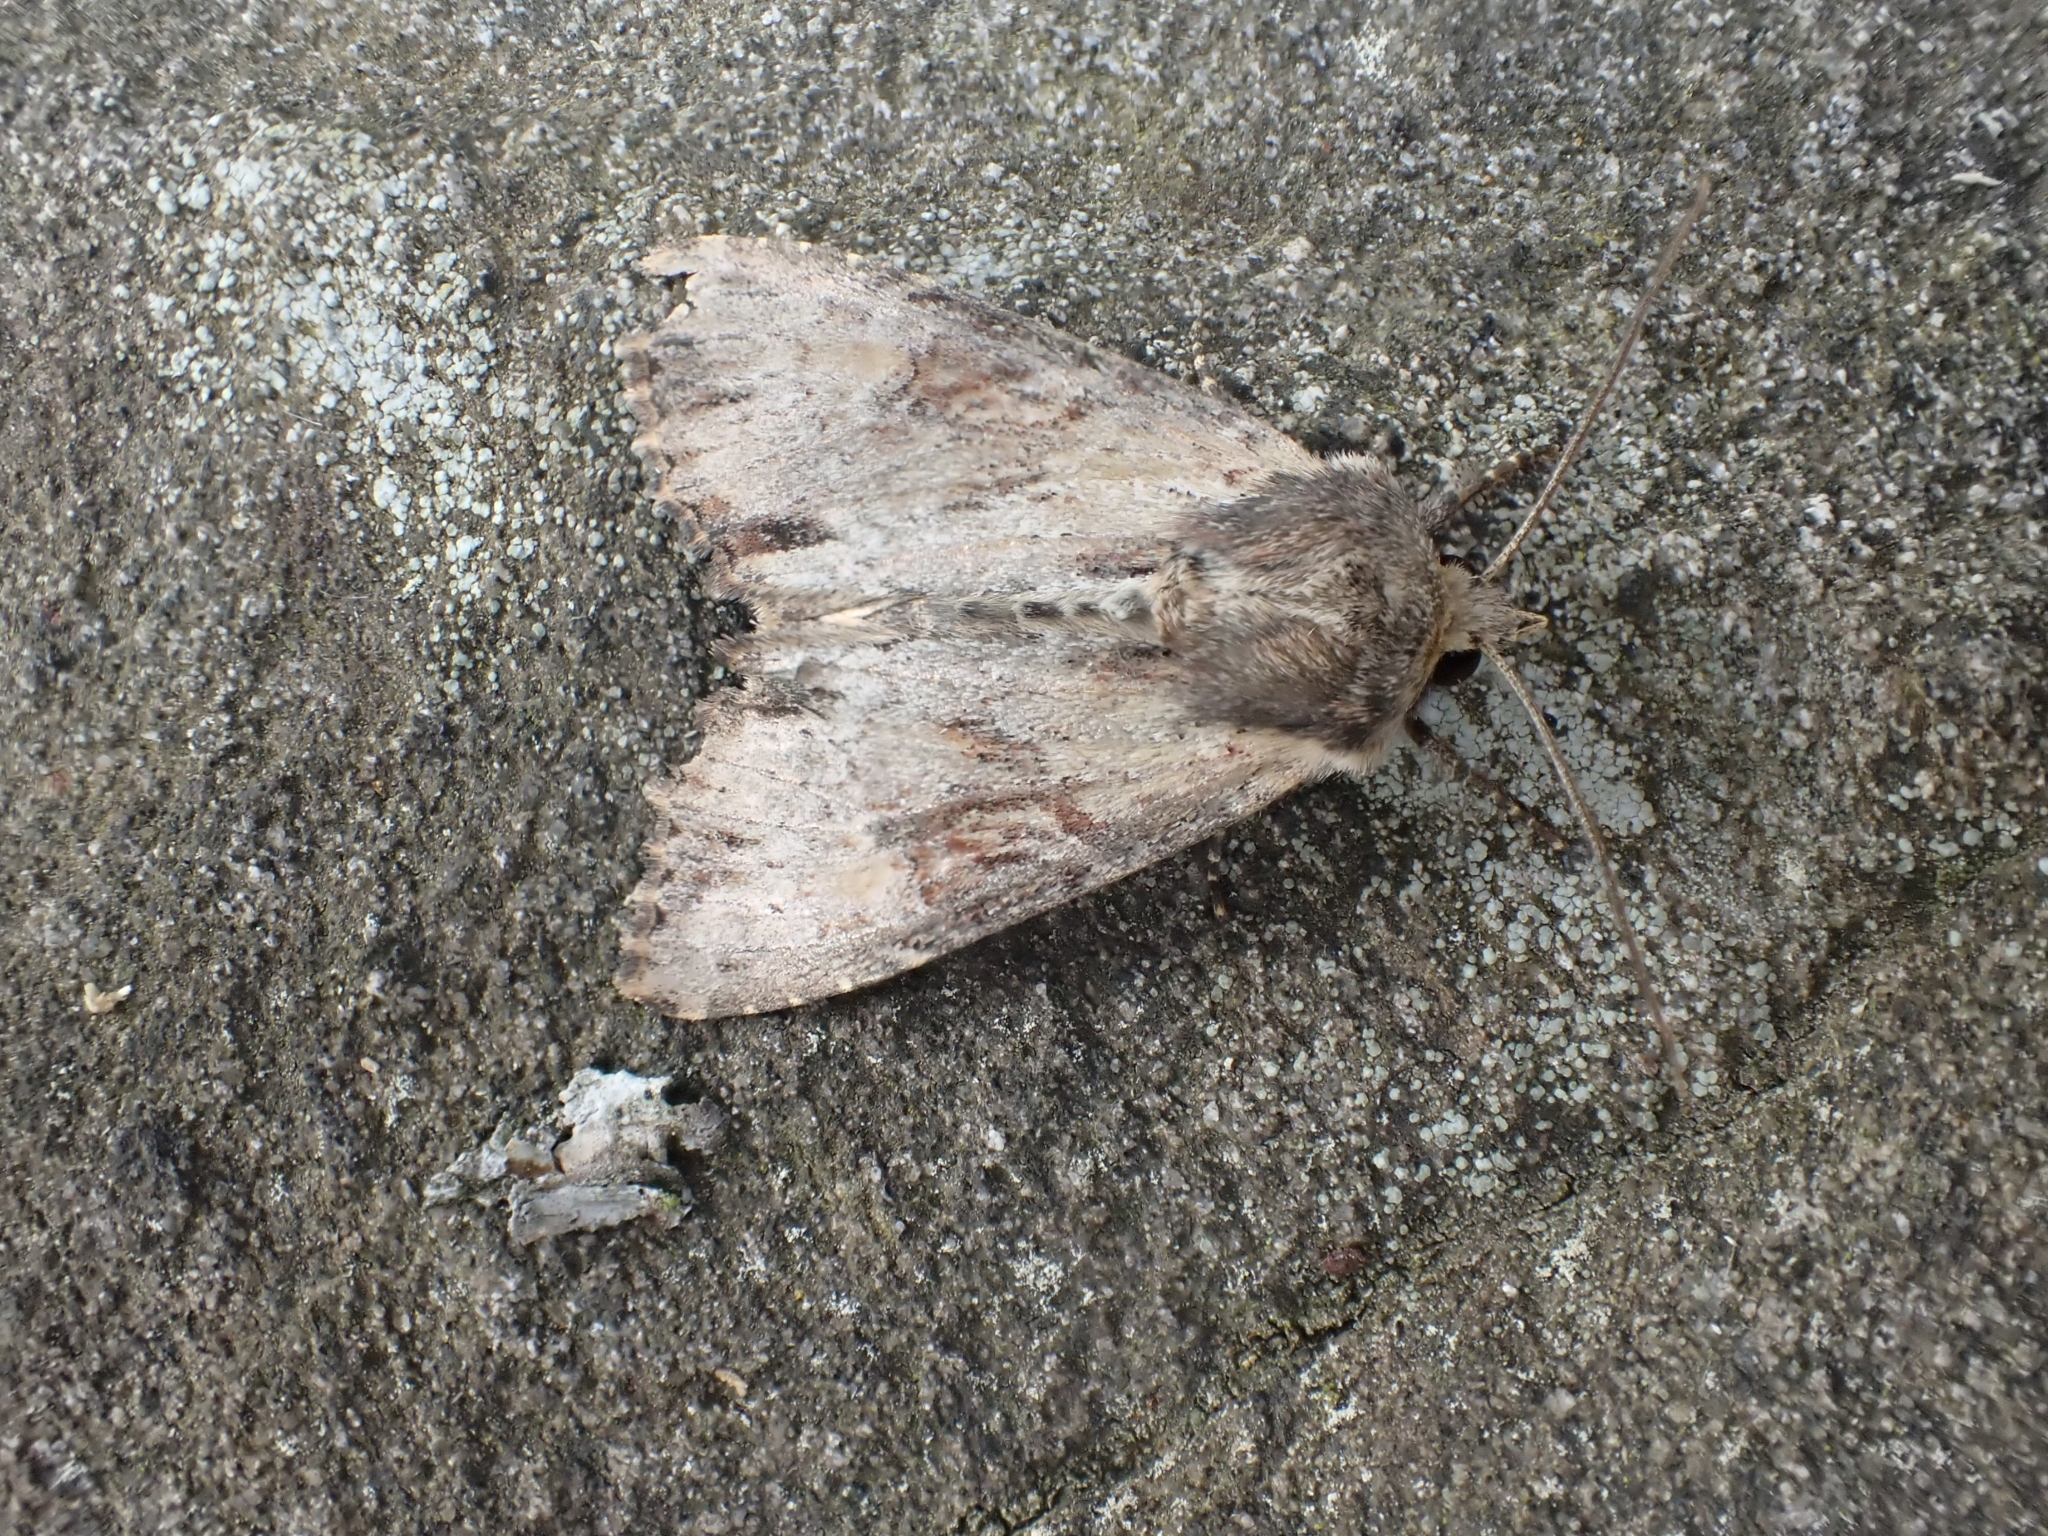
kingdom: Animalia
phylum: Arthropoda
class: Insecta
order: Lepidoptera
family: Noctuidae
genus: Apamea
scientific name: Apamea crenata
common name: Clouded-bordered brindle
